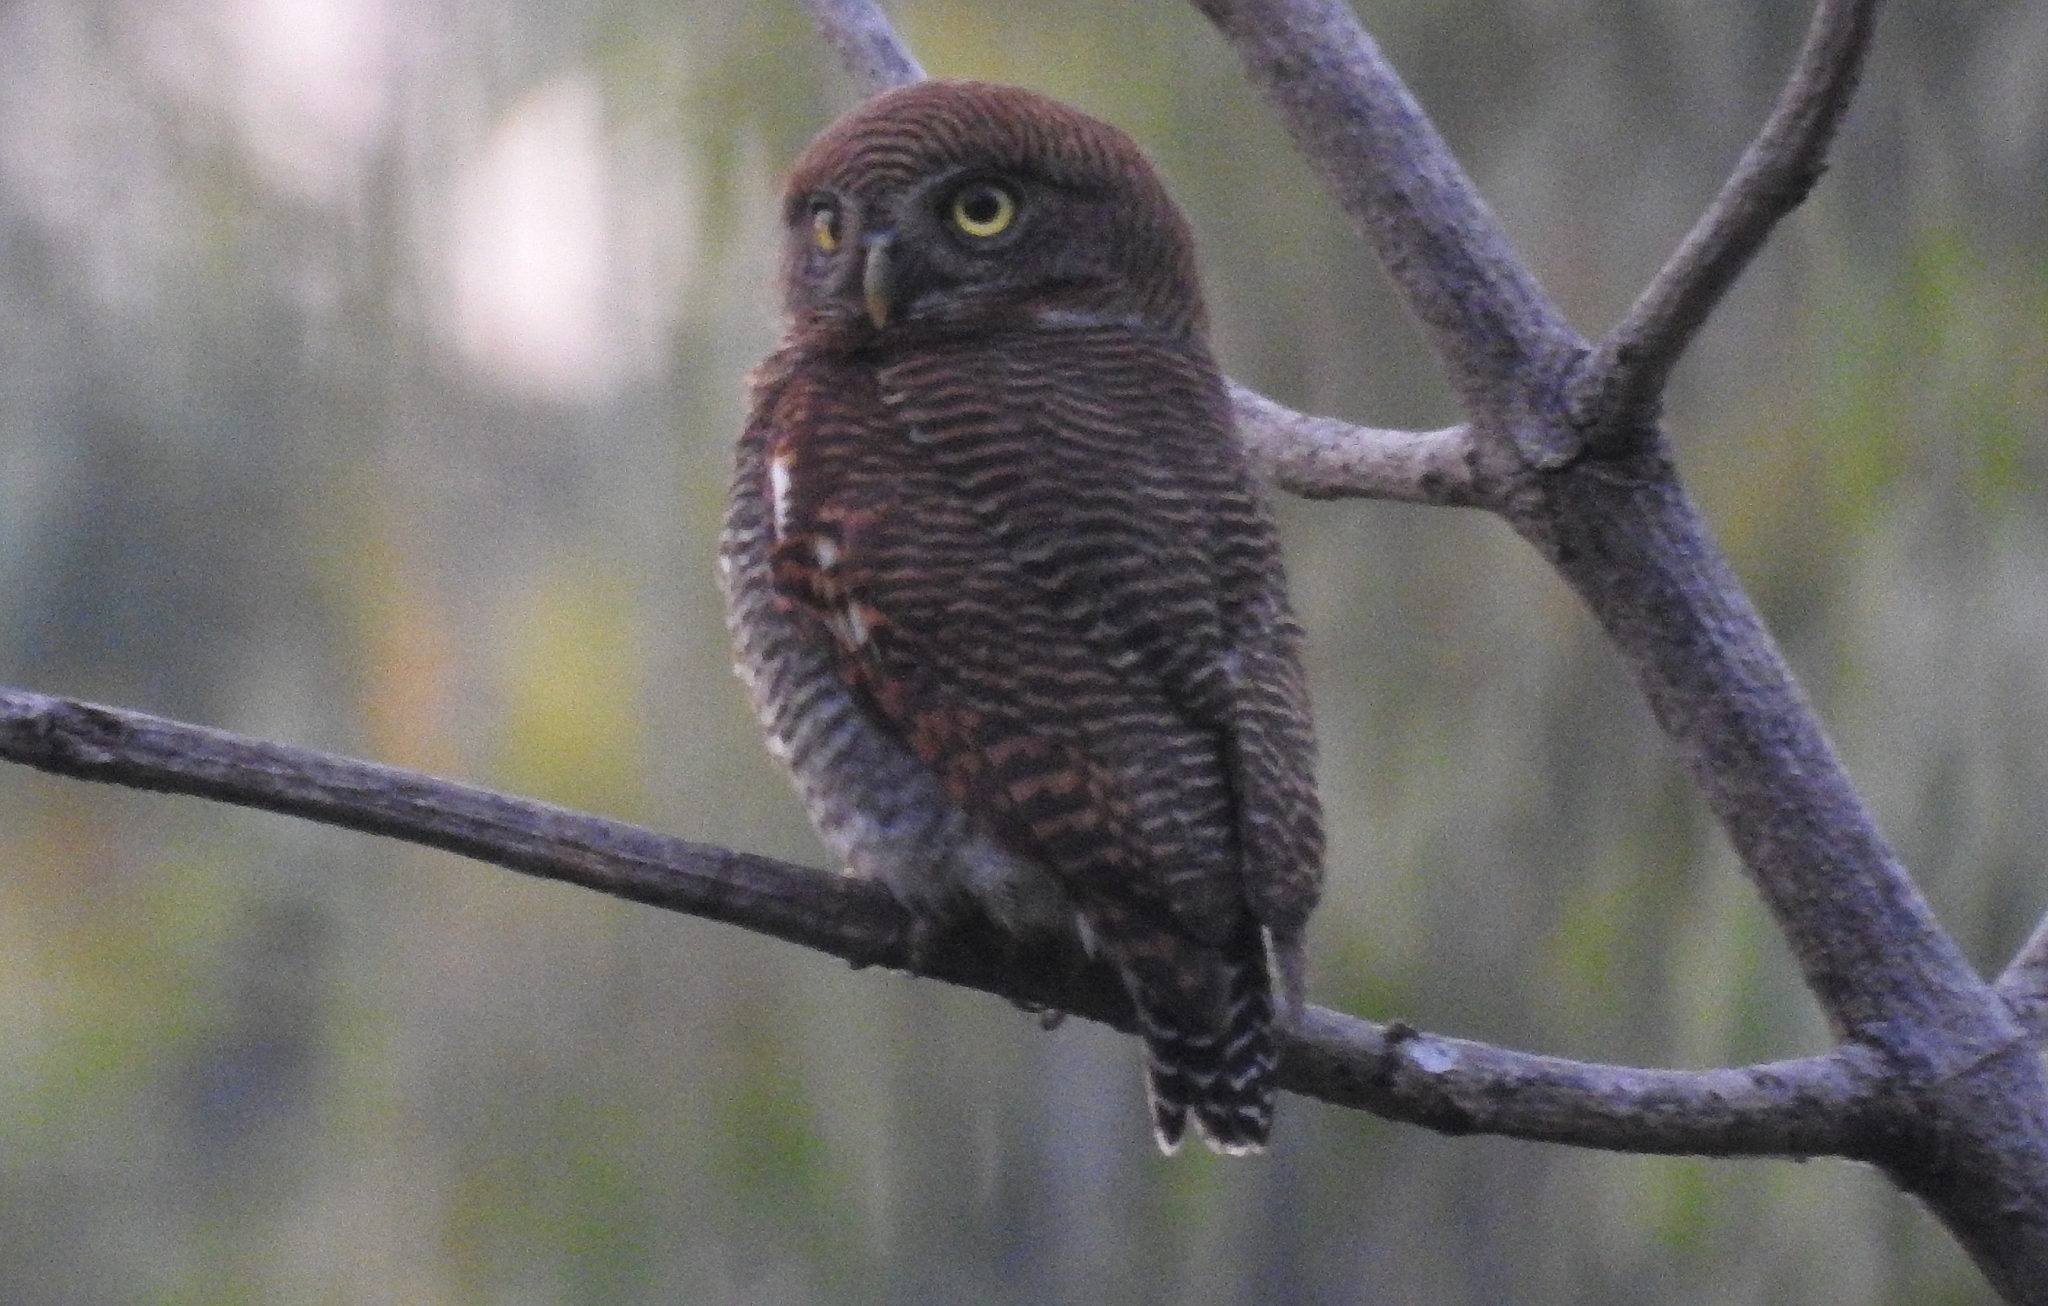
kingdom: Animalia
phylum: Chordata
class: Aves
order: Strigiformes
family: Strigidae
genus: Glaucidium
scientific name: Glaucidium radiatum
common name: Jungle owlet
